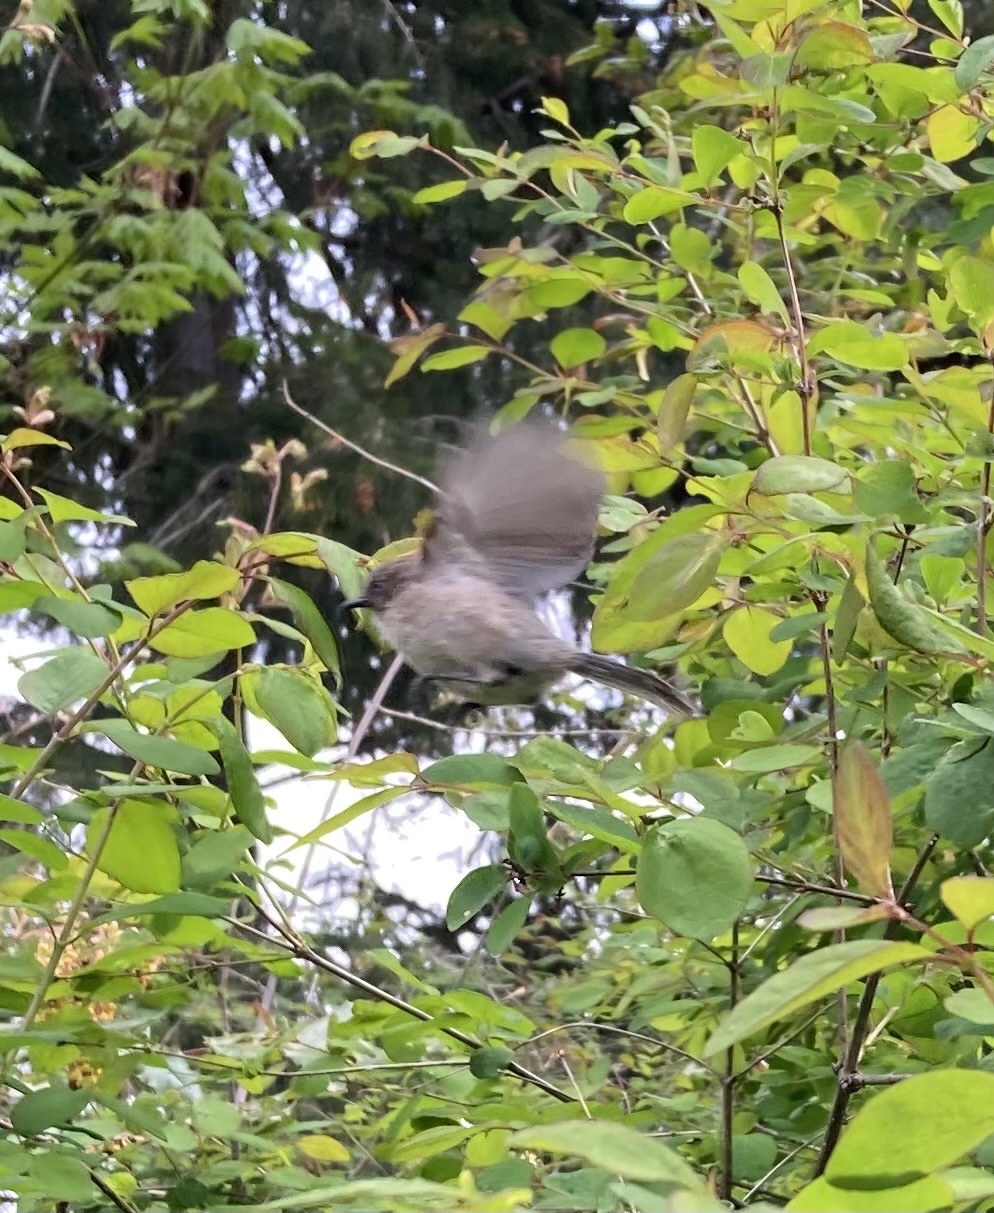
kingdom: Animalia
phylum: Chordata
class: Aves
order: Passeriformes
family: Aegithalidae
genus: Psaltriparus
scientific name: Psaltriparus minimus
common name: American bushtit
